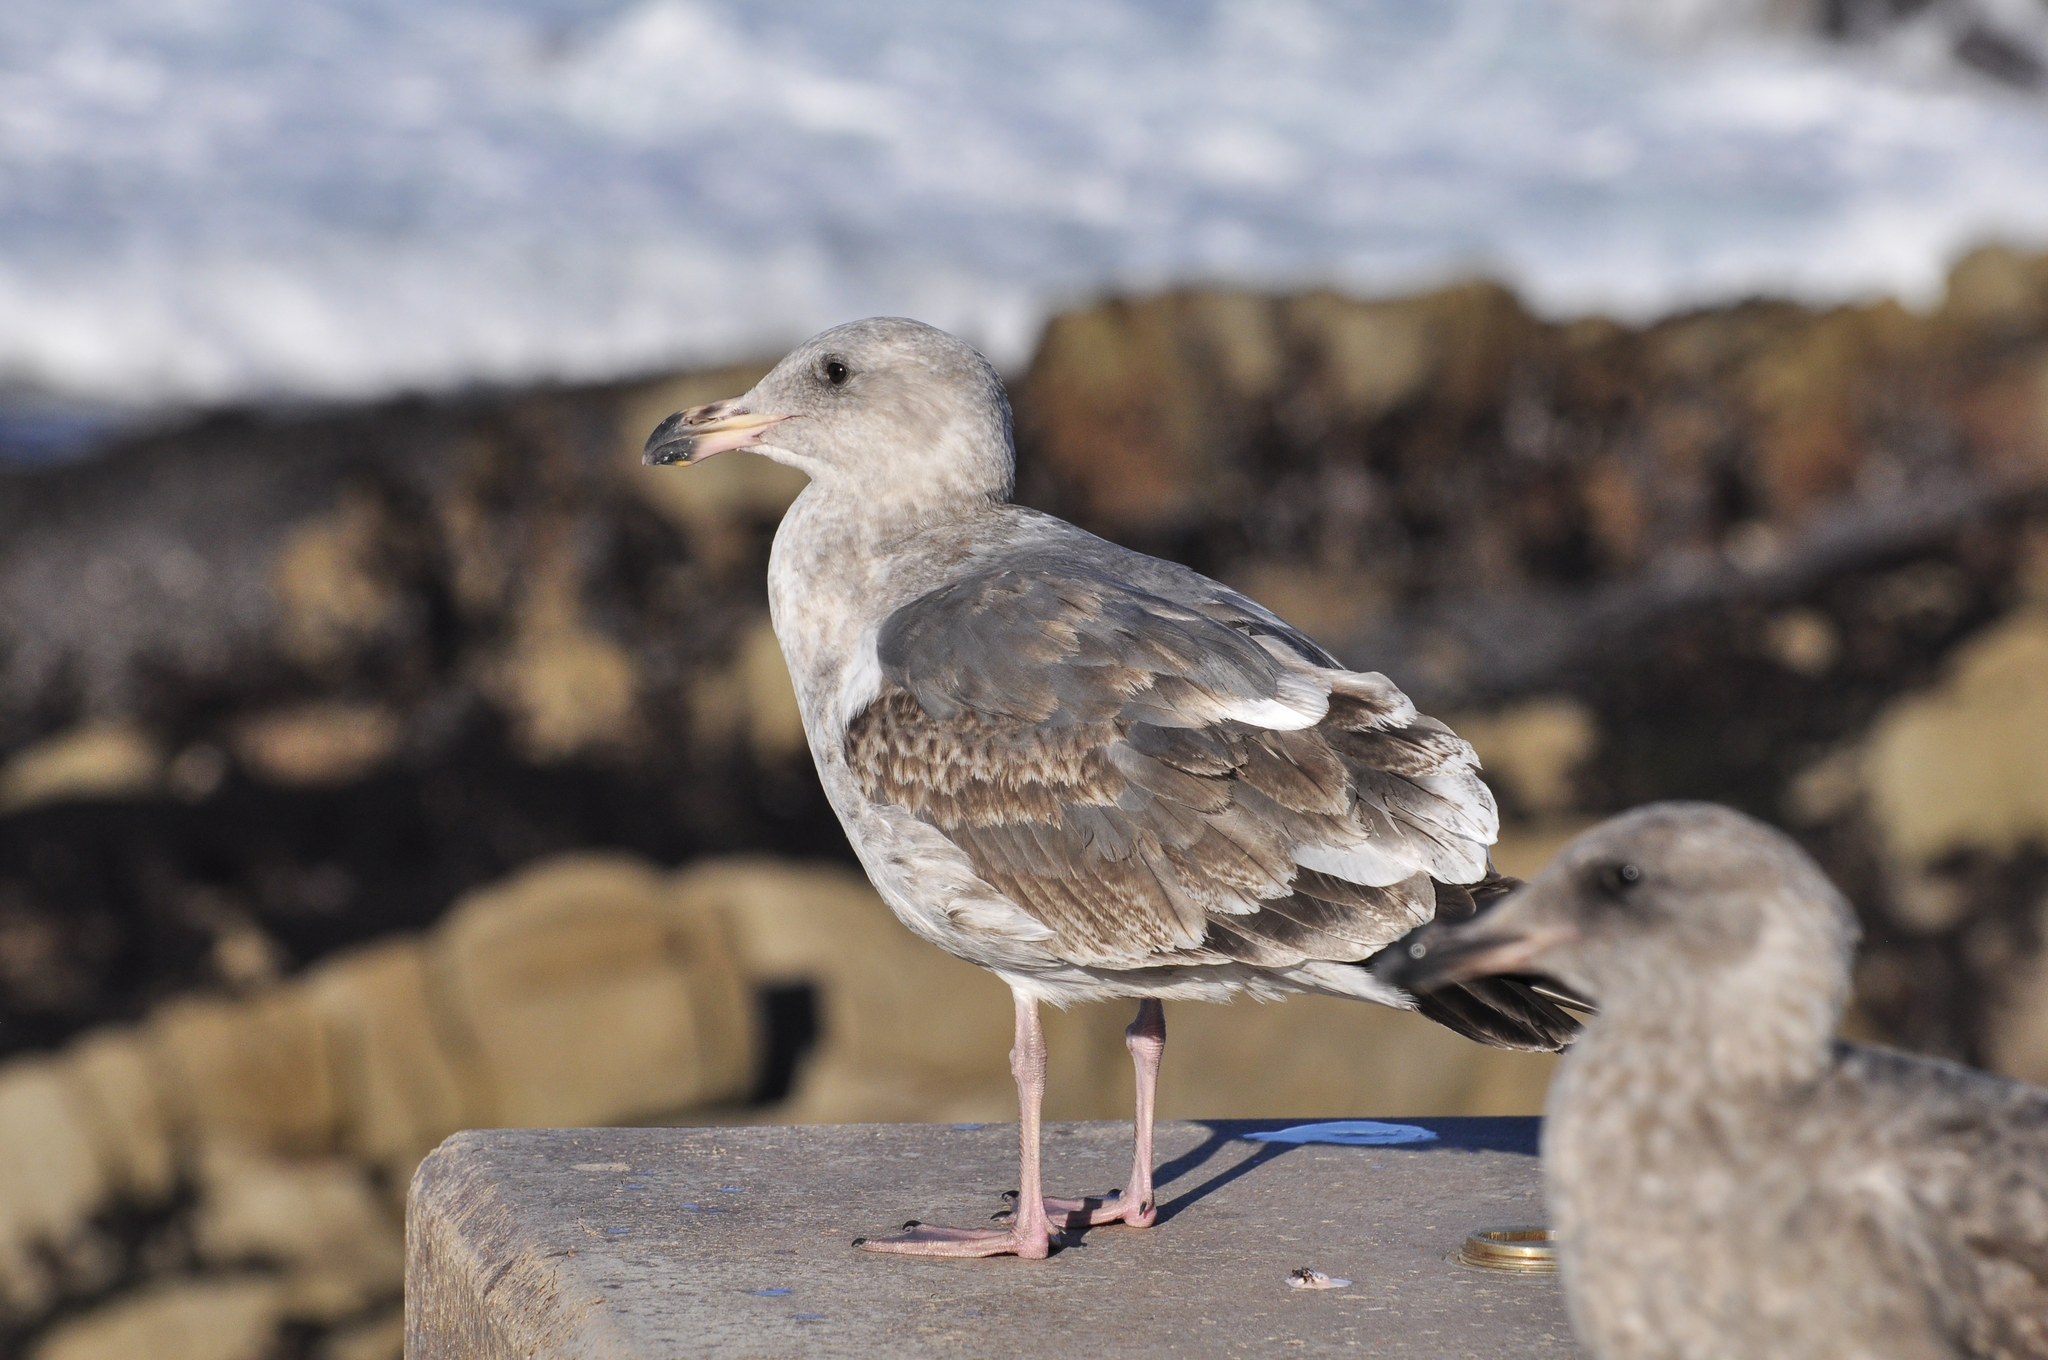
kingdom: Animalia
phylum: Chordata
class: Aves
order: Charadriiformes
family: Laridae
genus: Larus
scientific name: Larus occidentalis
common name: Western gull
